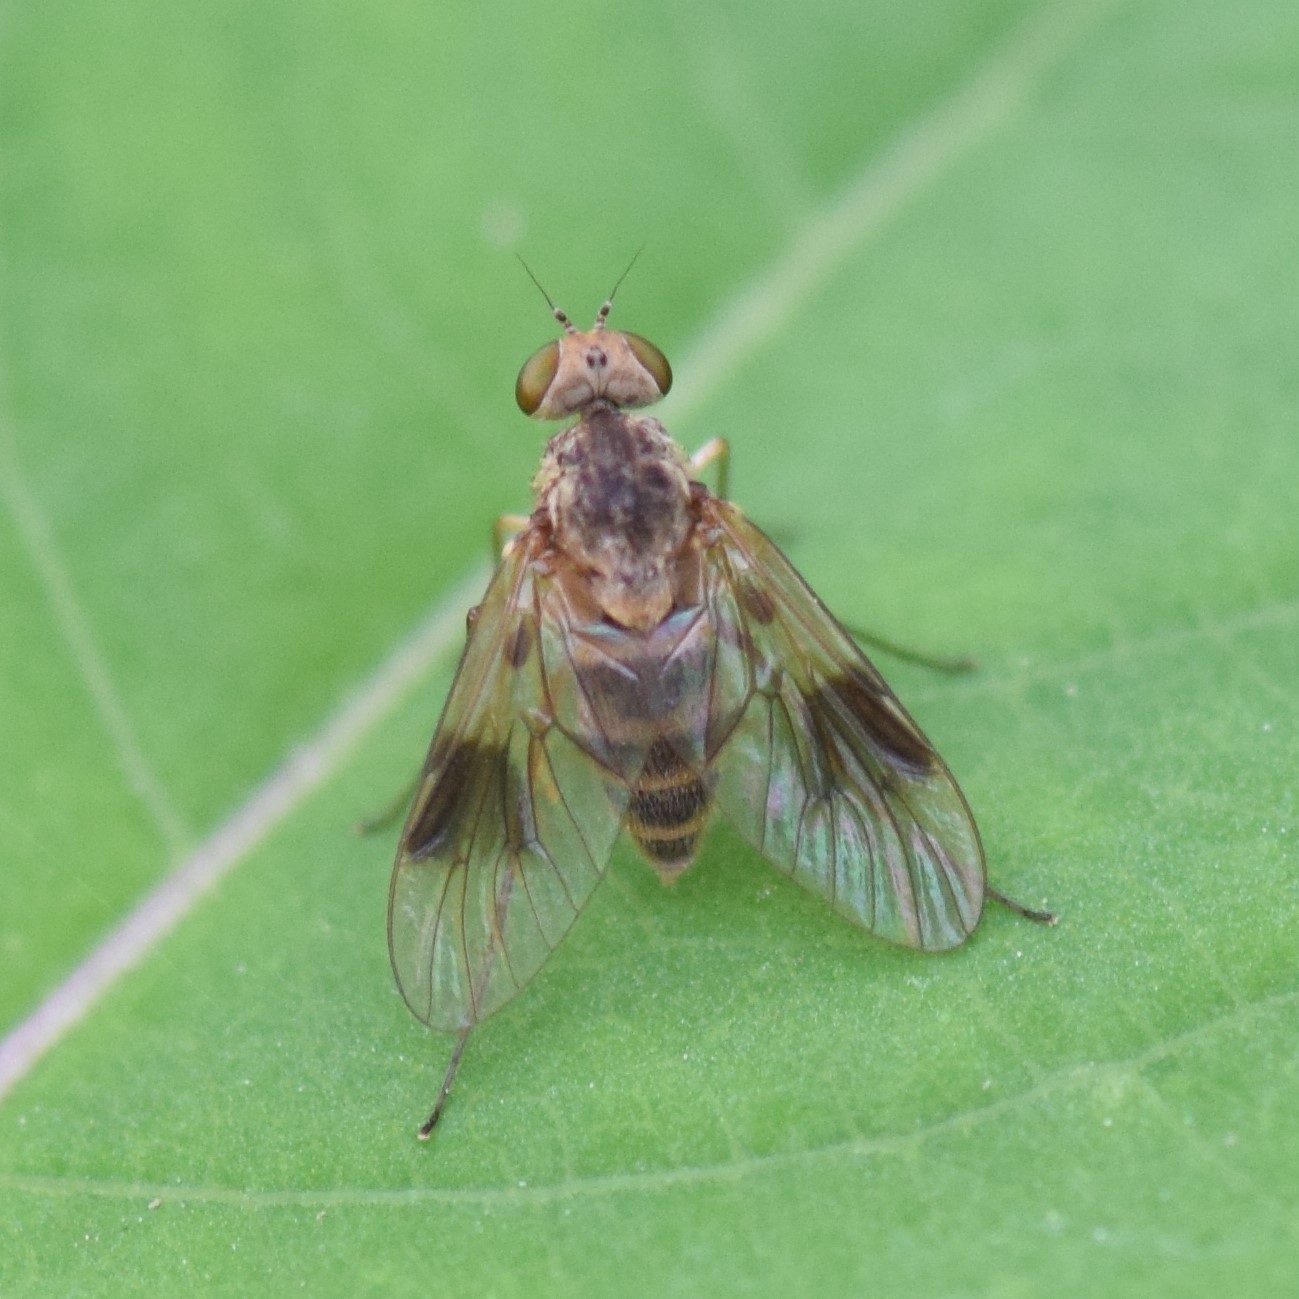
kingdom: Animalia
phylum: Arthropoda
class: Insecta
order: Diptera
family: Rhagionidae
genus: Chrysopilus
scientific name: Chrysopilus quadratus
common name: Quadrate snipe fly
